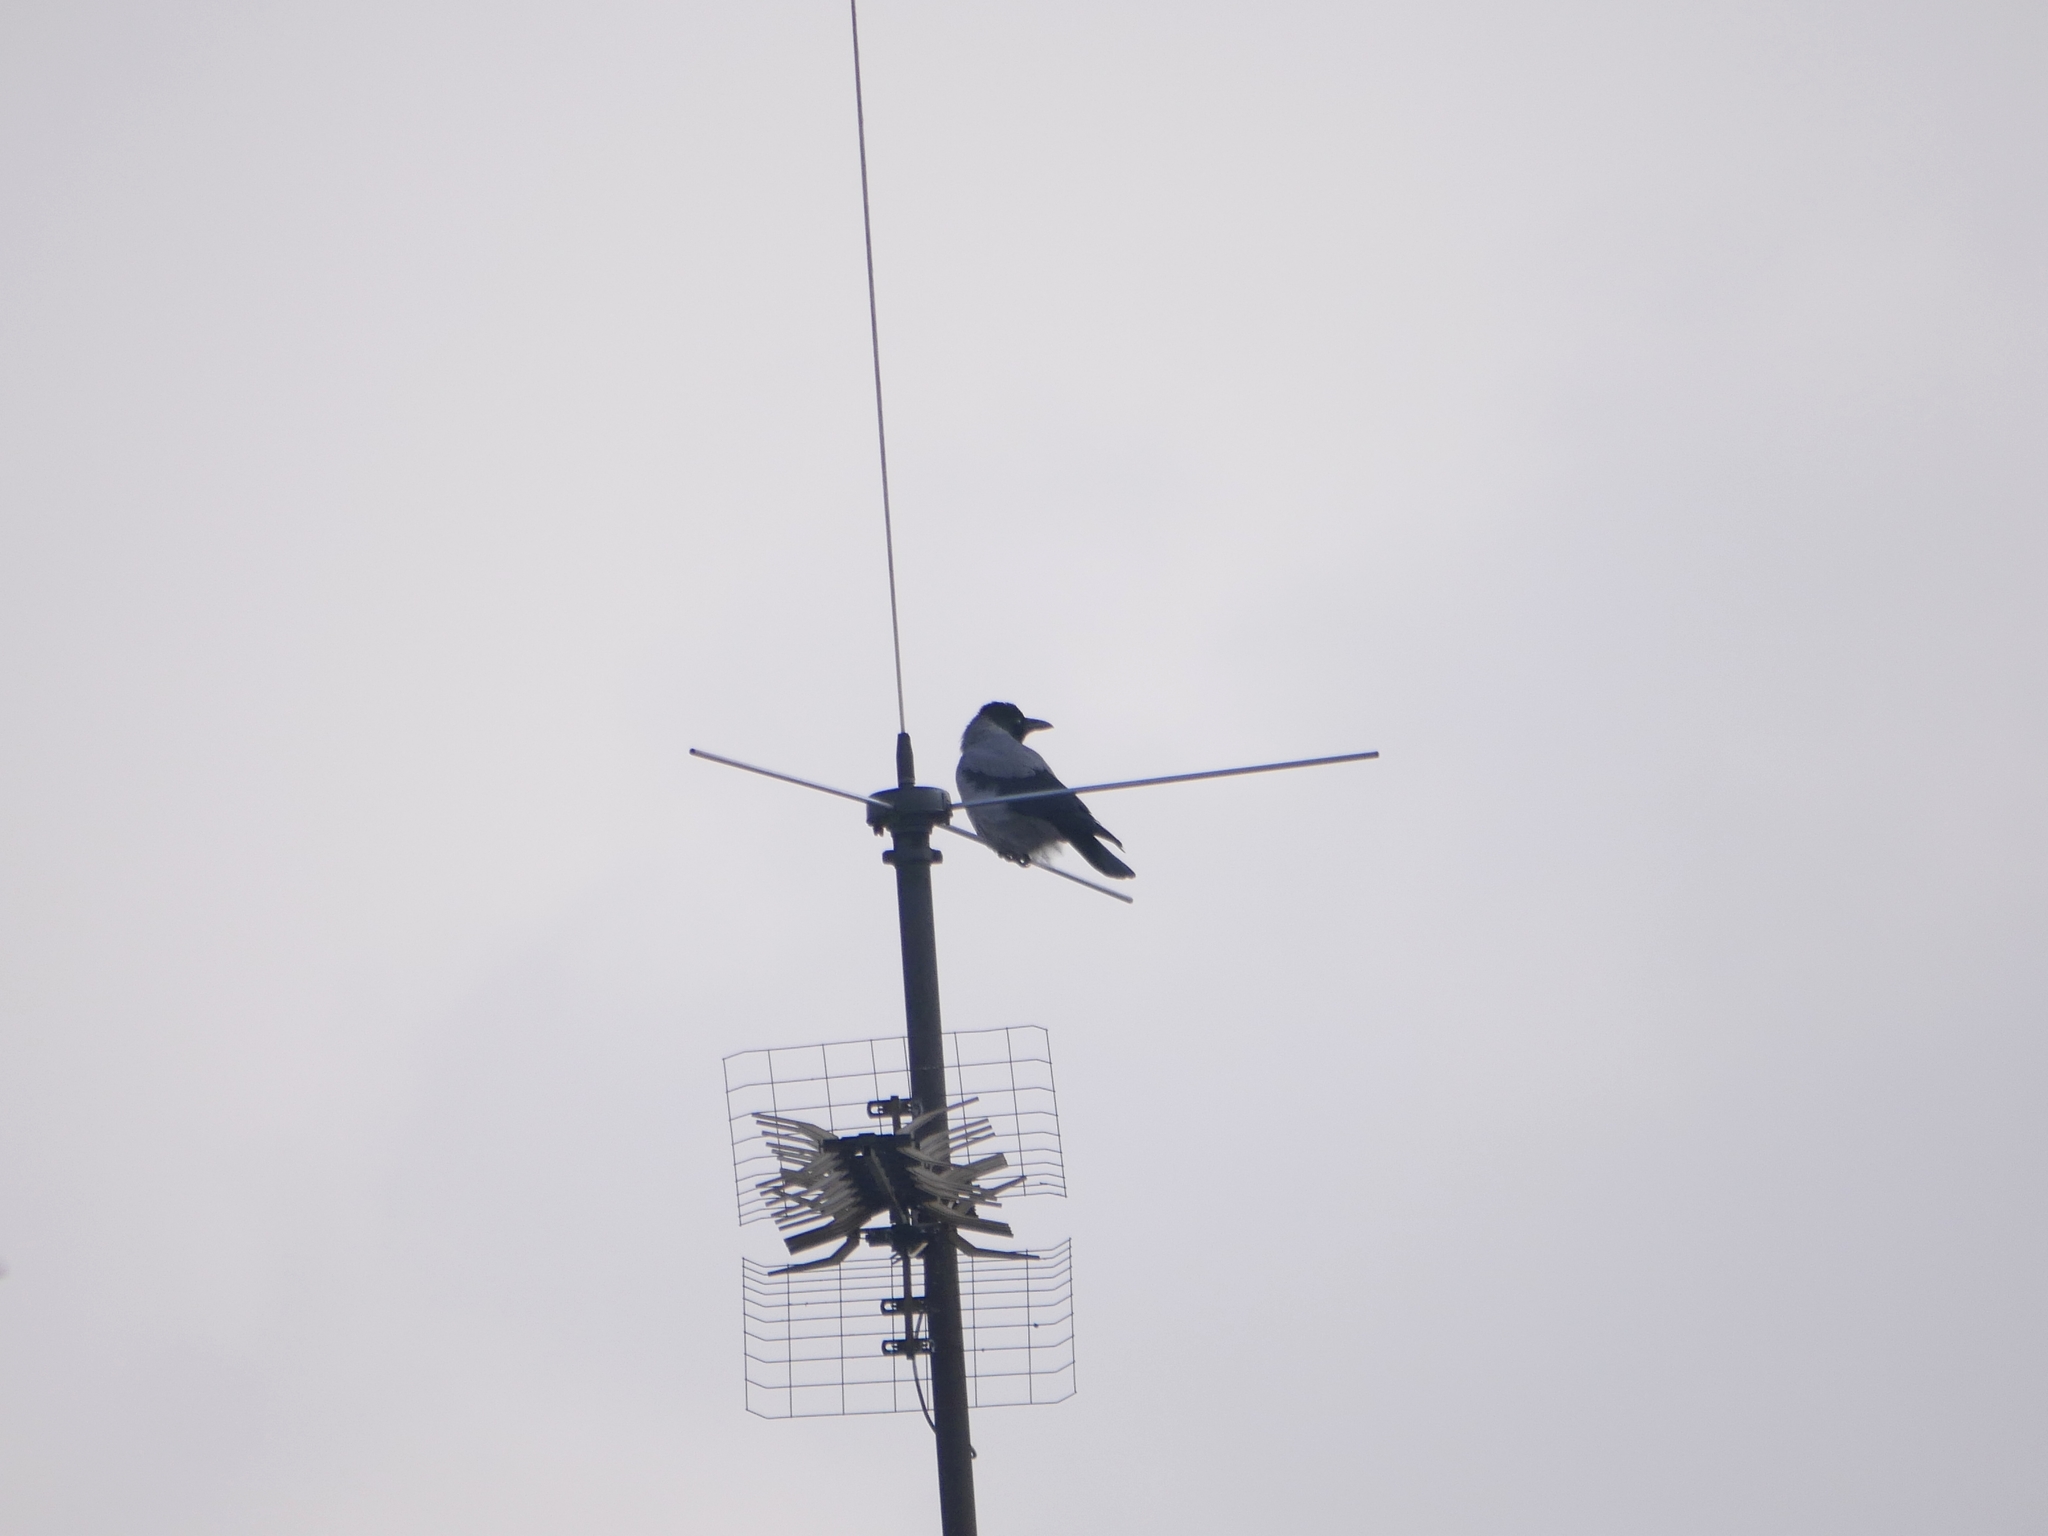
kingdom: Animalia
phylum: Chordata
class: Aves
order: Passeriformes
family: Corvidae
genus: Corvus
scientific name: Corvus cornix
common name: Hooded crow
